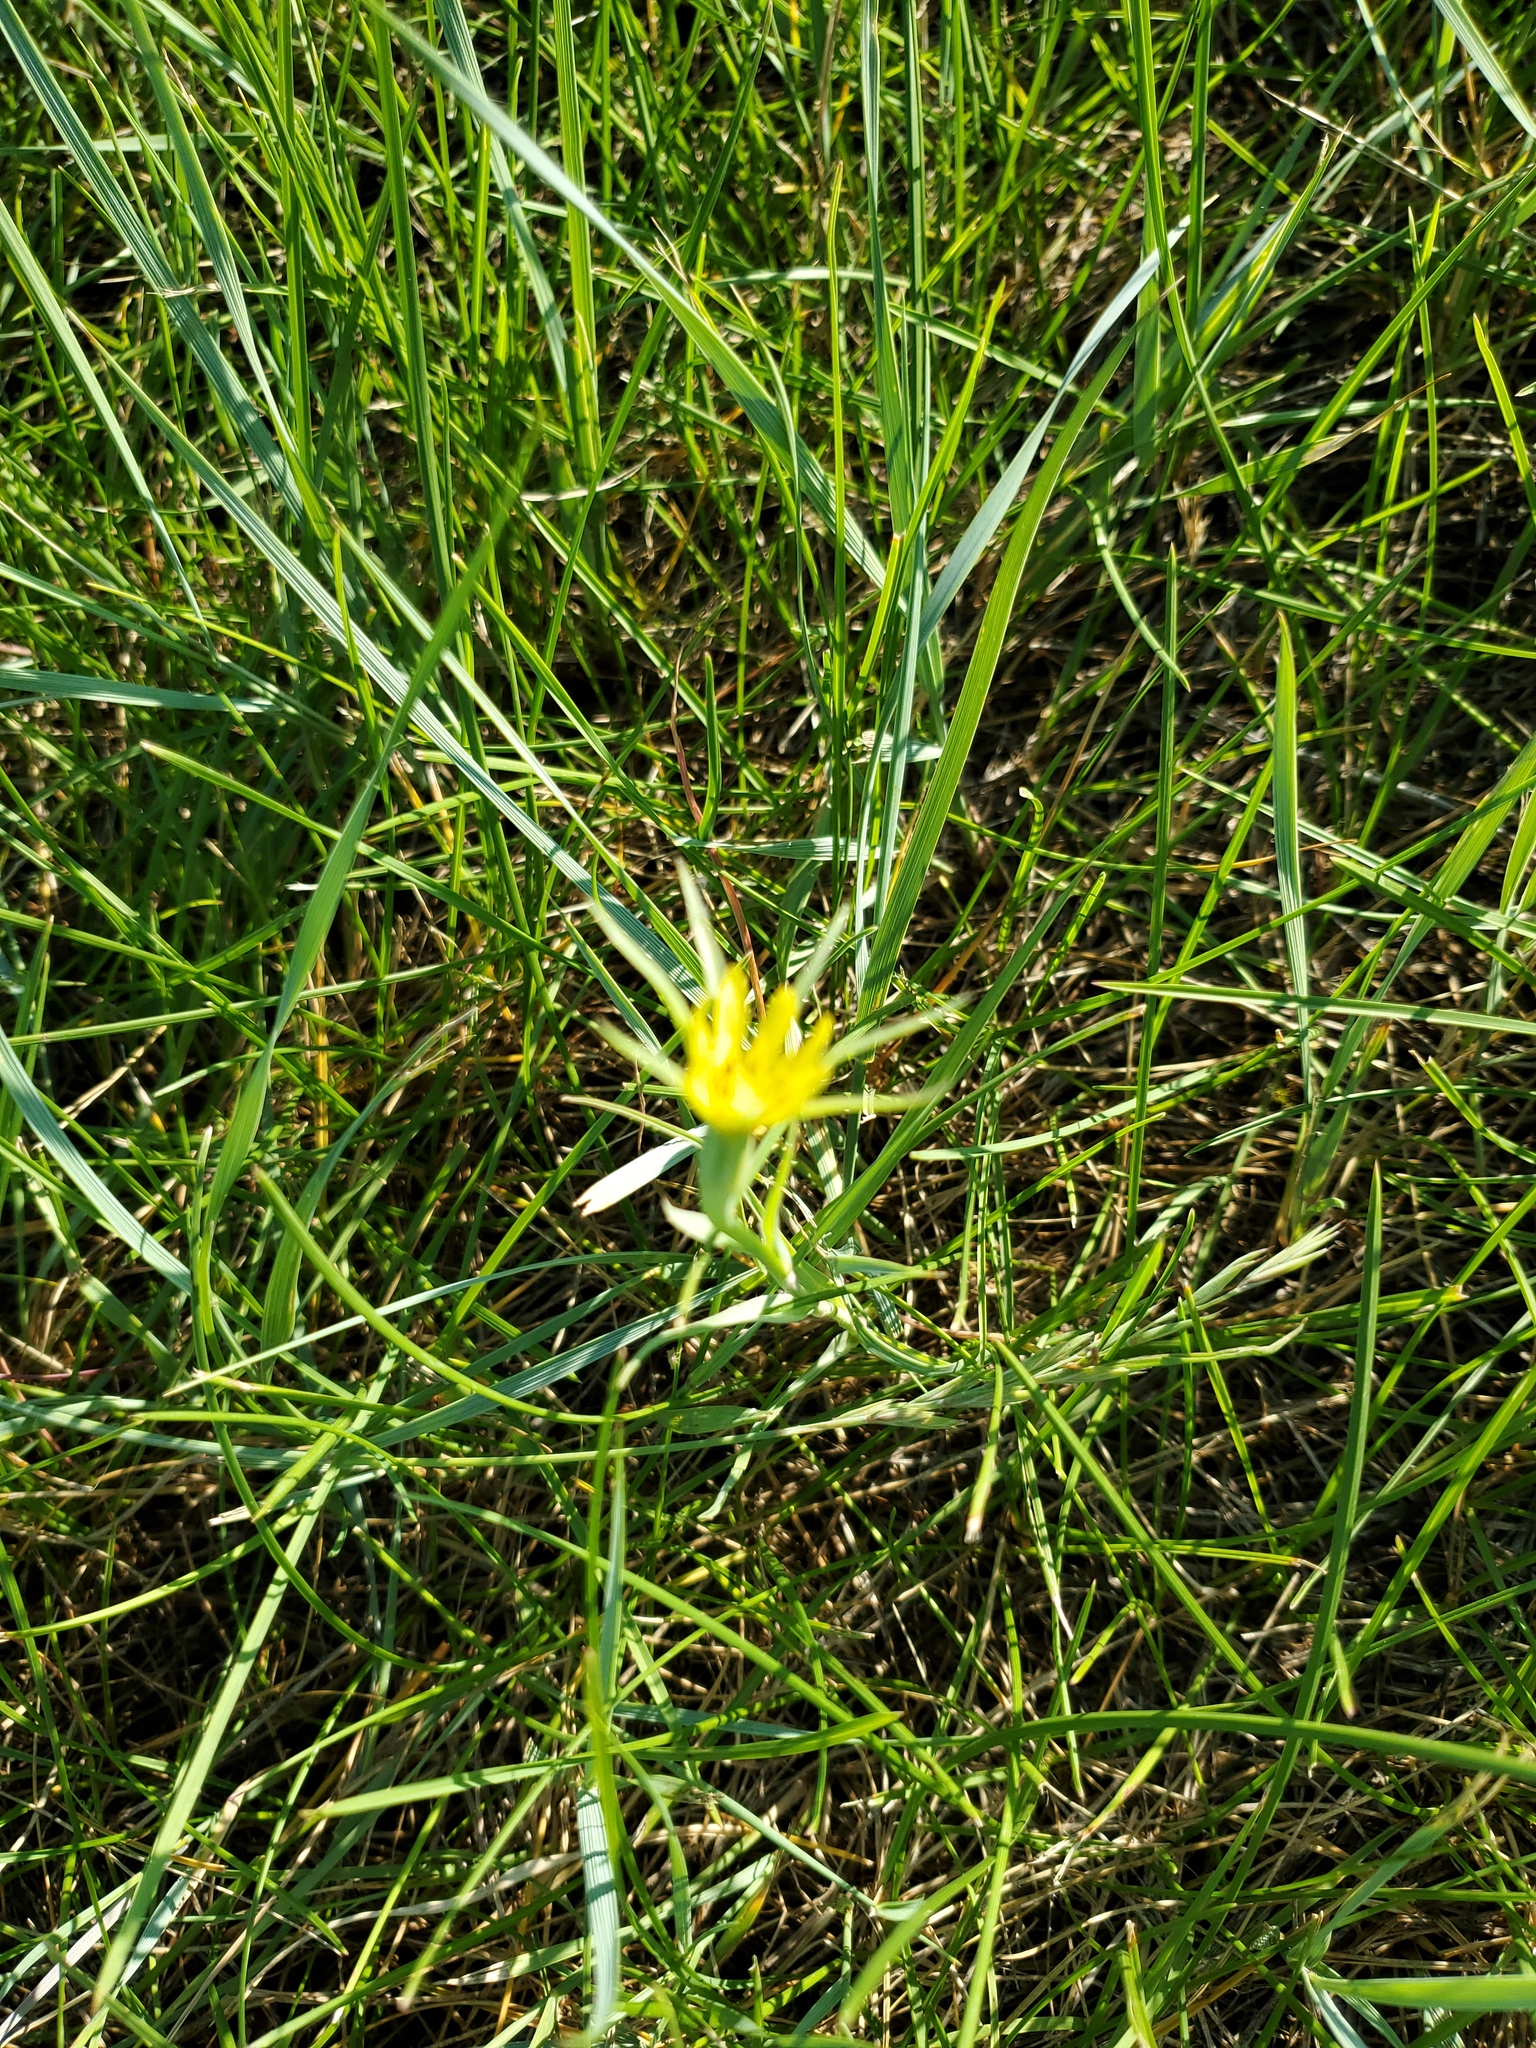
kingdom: Plantae
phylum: Tracheophyta
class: Magnoliopsida
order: Asterales
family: Asteraceae
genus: Tragopogon
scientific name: Tragopogon dubius
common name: Yellow salsify
